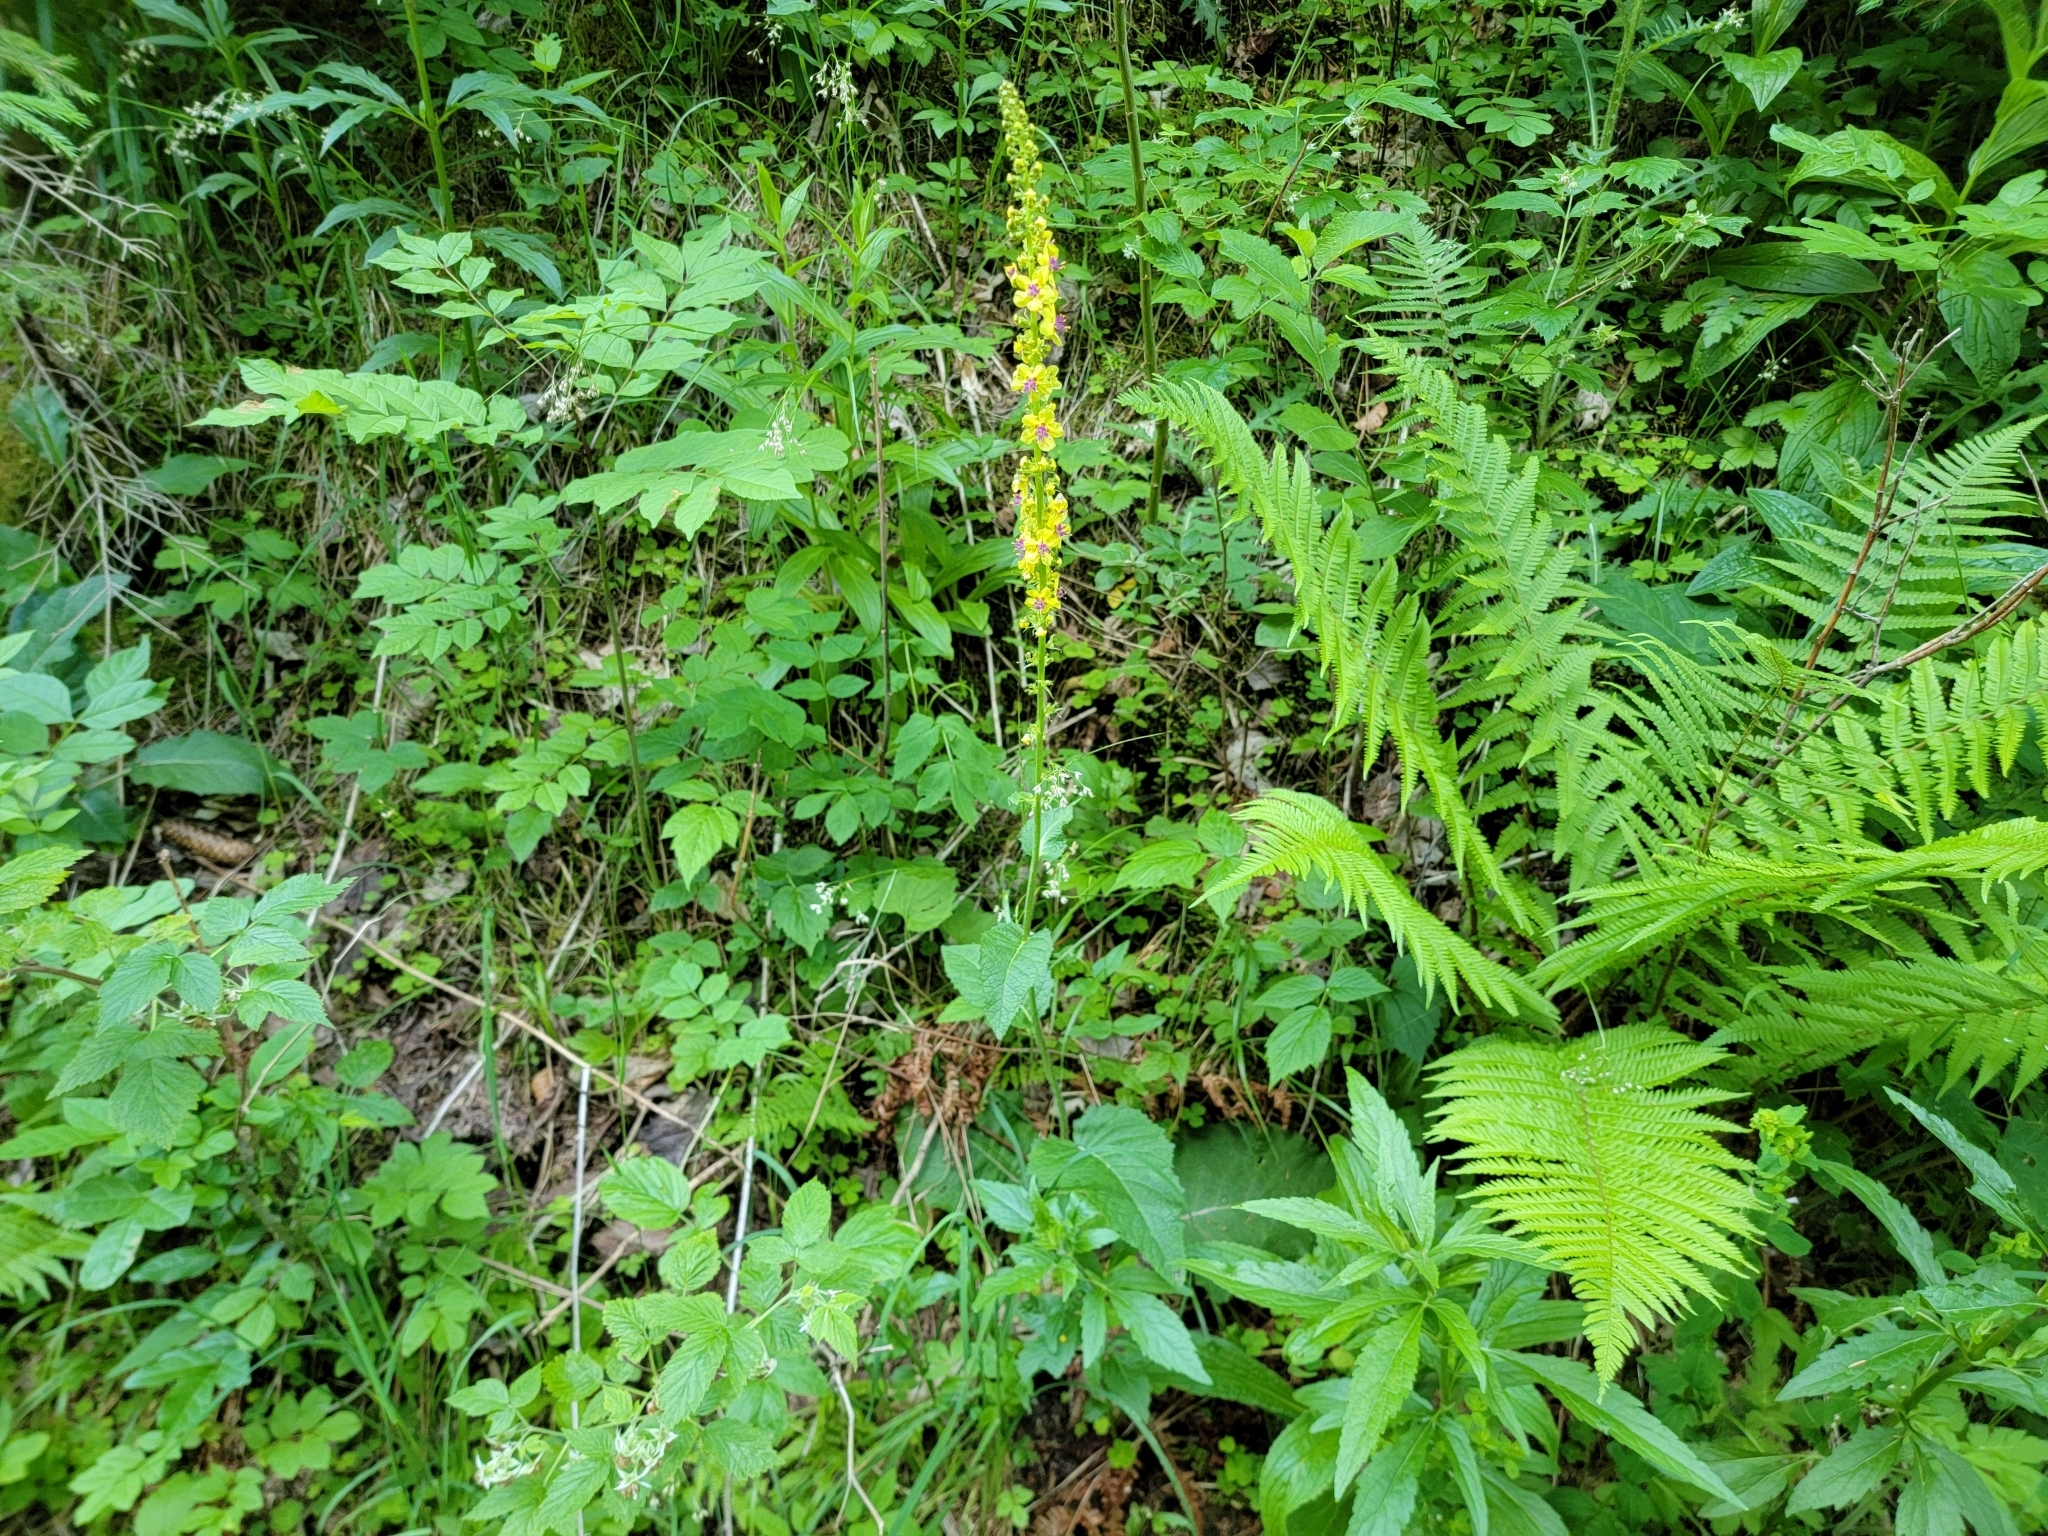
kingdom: Plantae
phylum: Tracheophyta
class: Magnoliopsida
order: Lamiales
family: Scrophulariaceae
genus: Verbascum
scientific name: Verbascum nigrum
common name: Dark mullein
